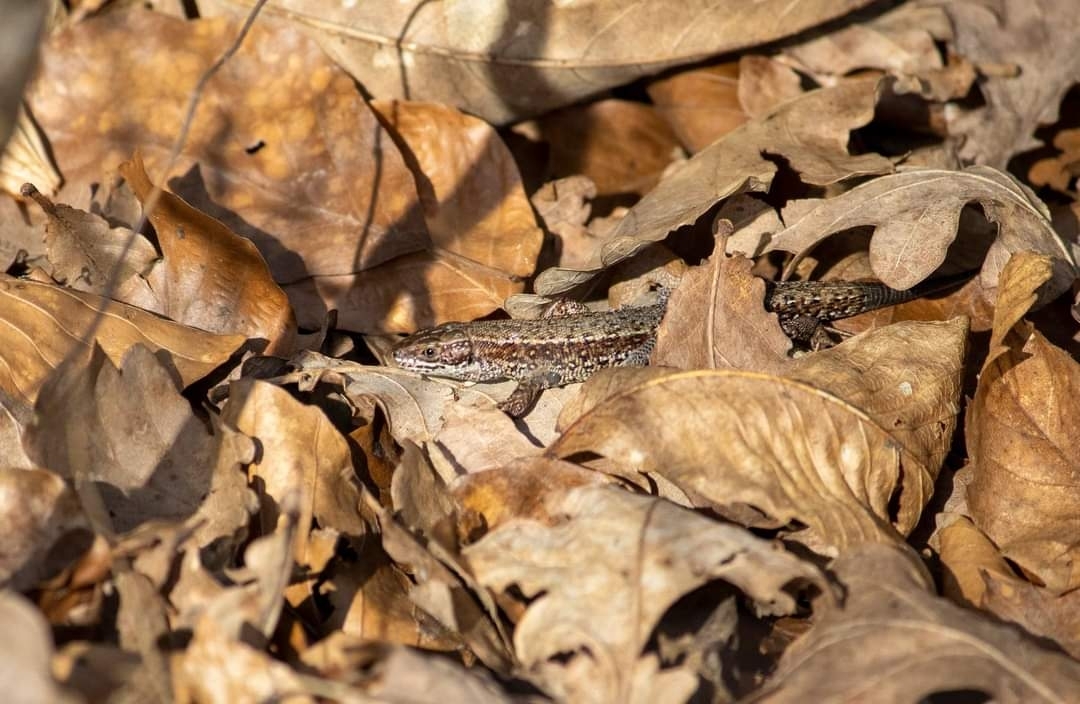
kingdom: Animalia
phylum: Chordata
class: Squamata
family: Lacertidae
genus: Zootoca
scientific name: Zootoca vivipara
